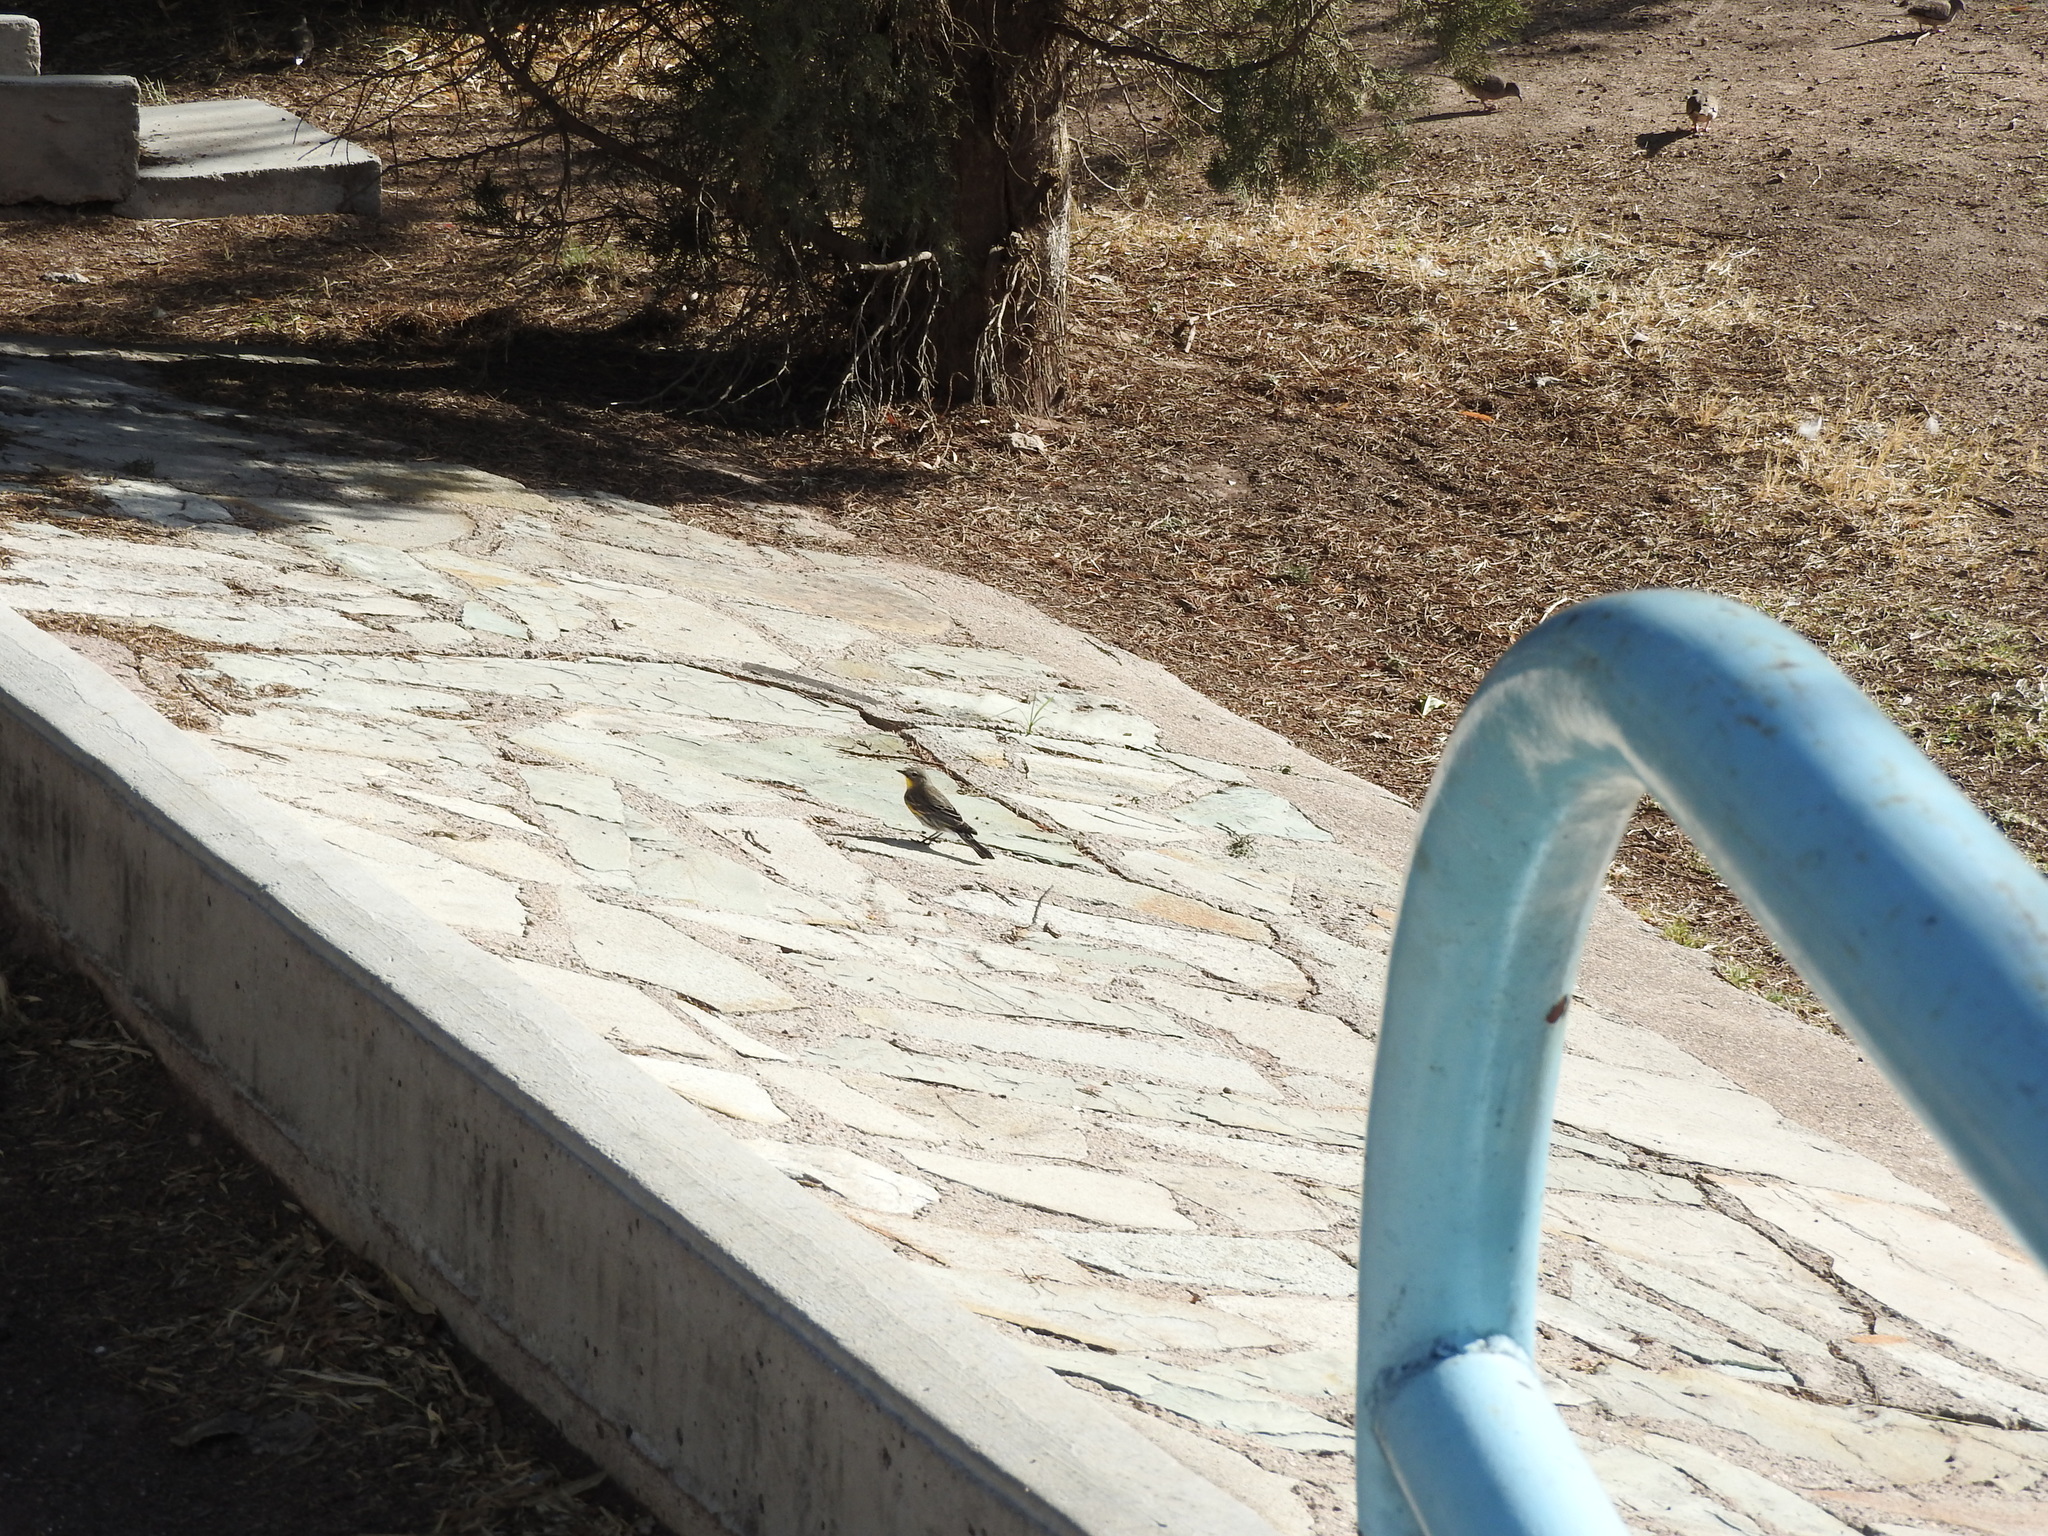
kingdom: Animalia
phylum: Chordata
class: Aves
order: Passeriformes
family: Parulidae
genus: Setophaga
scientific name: Setophaga coronata
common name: Myrtle warbler
